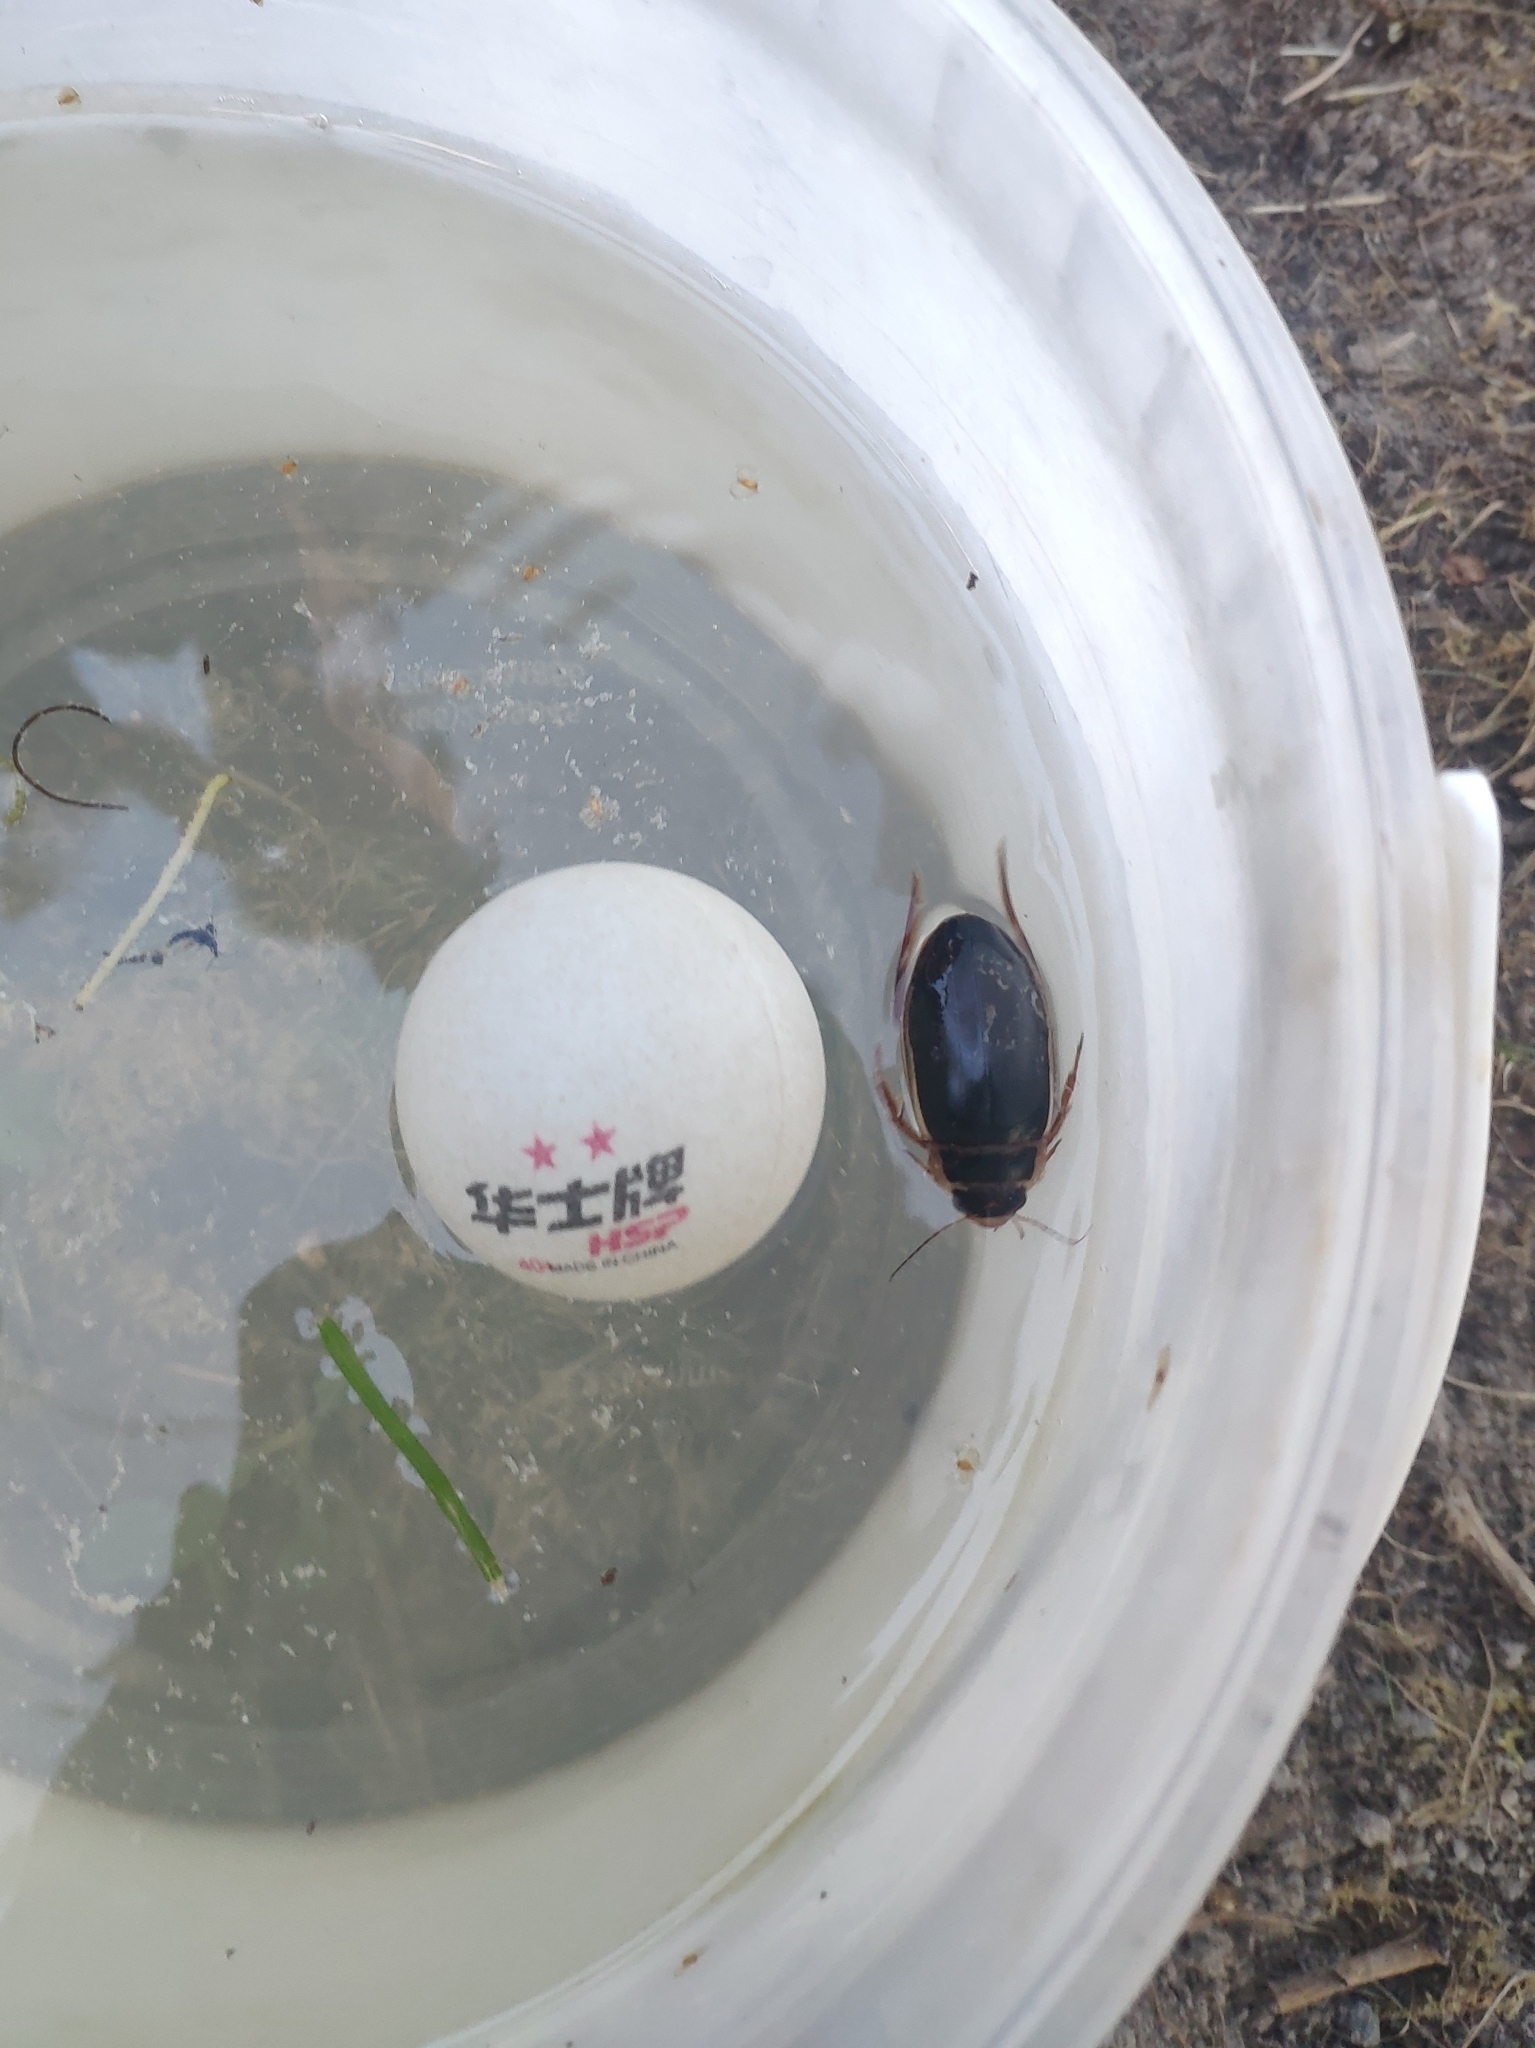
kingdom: Animalia
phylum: Arthropoda
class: Insecta
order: Coleoptera
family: Dytiscidae
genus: Dytiscus
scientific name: Dytiscus marginalis
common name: Great water beetle
